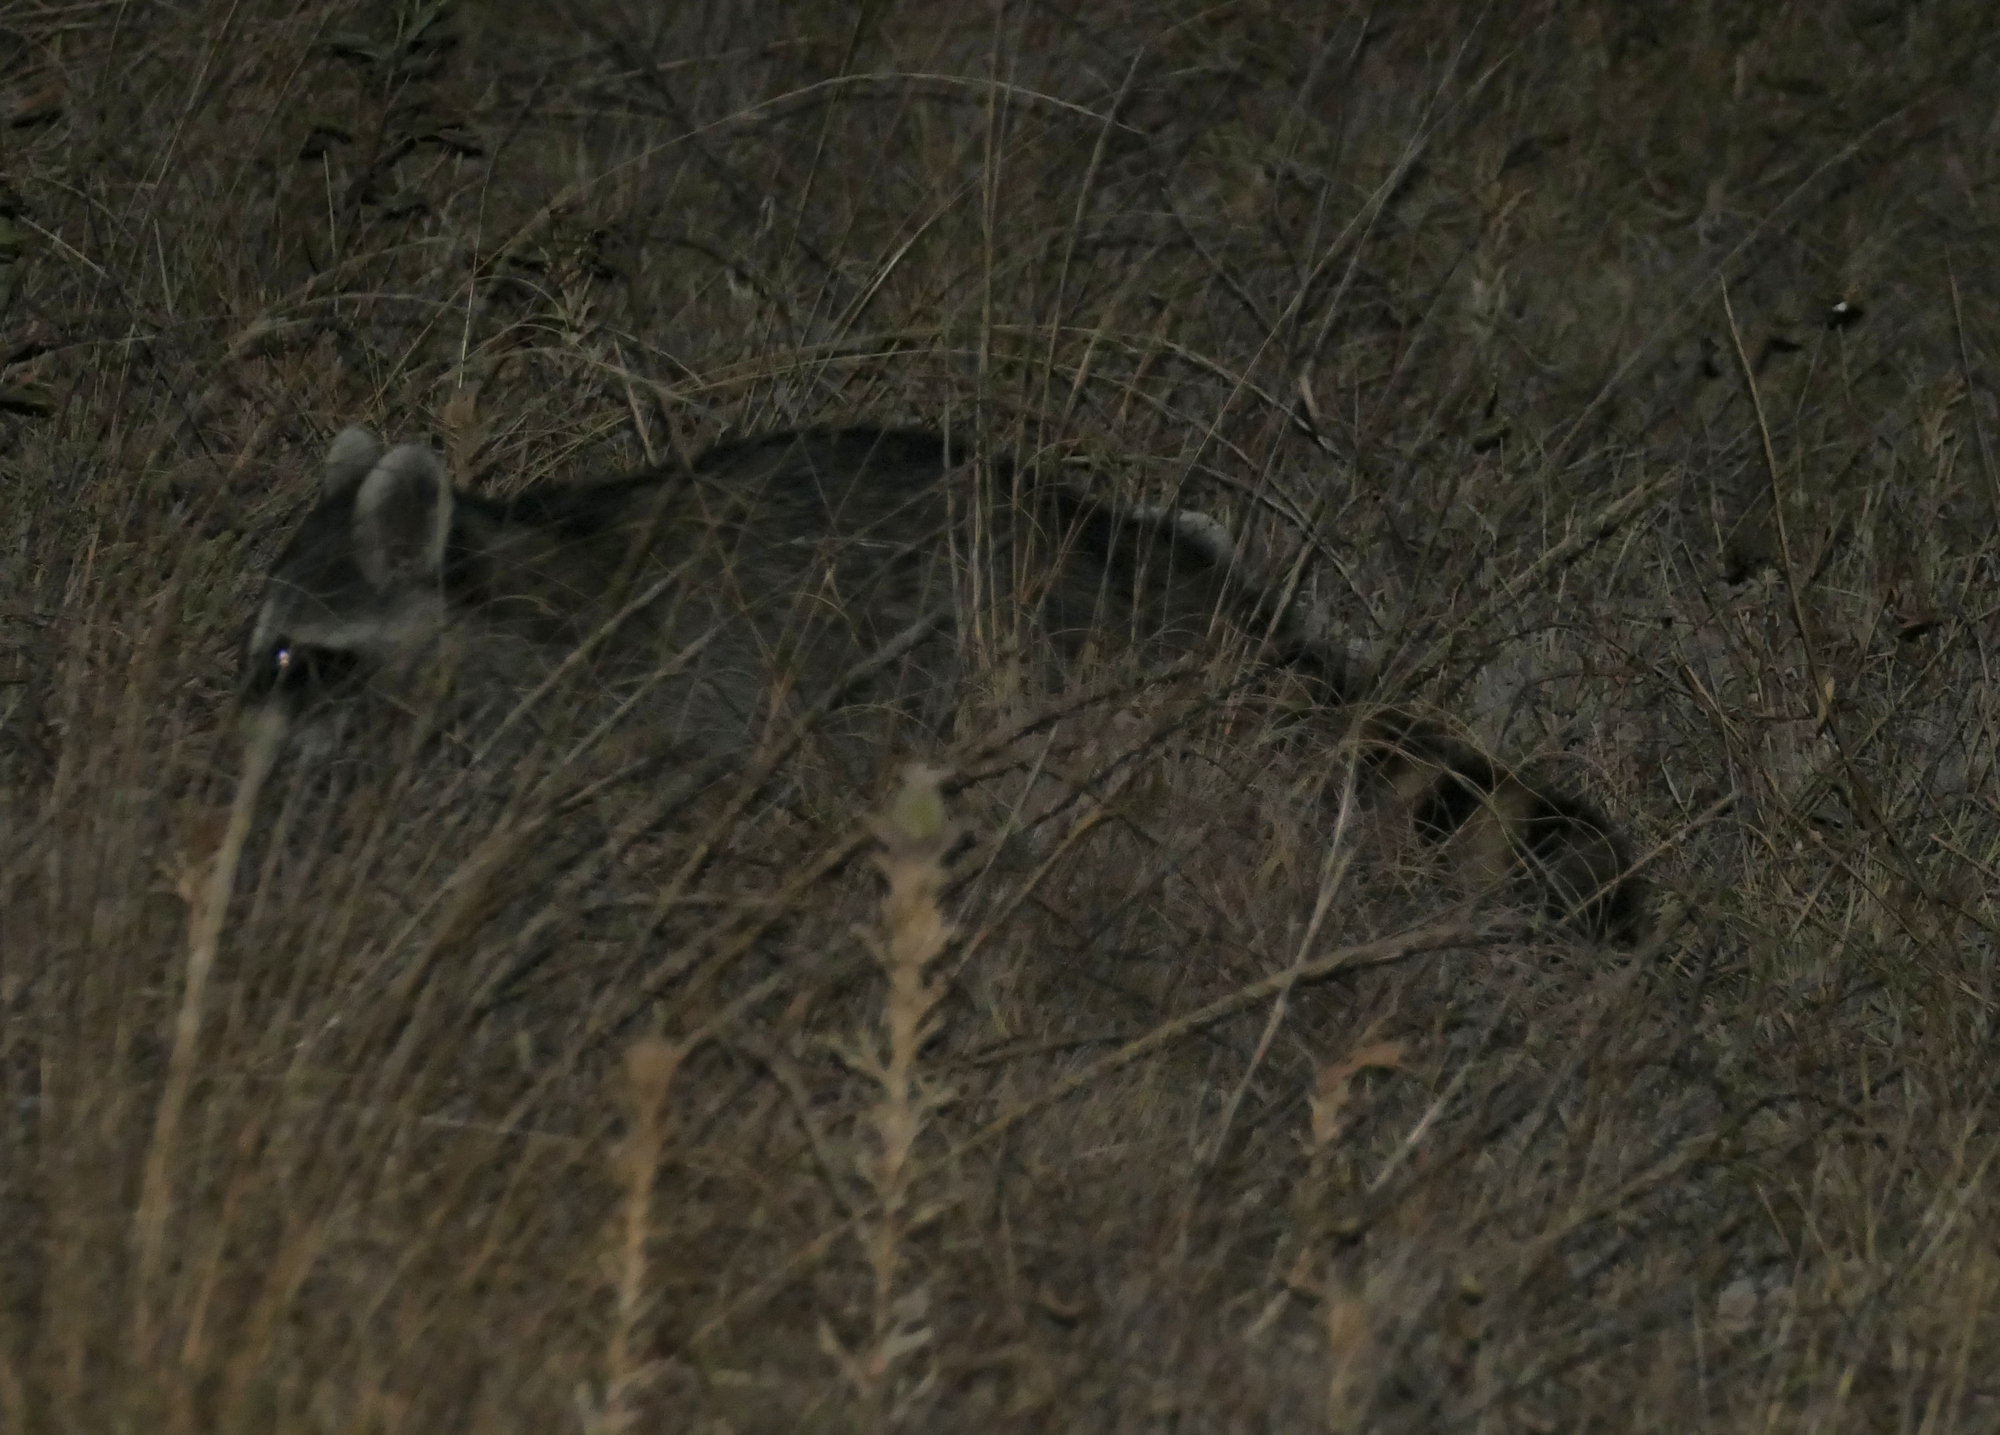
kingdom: Animalia
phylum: Chordata
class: Mammalia
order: Carnivora
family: Procyonidae
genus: Procyon
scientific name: Procyon lotor
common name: Raccoon
